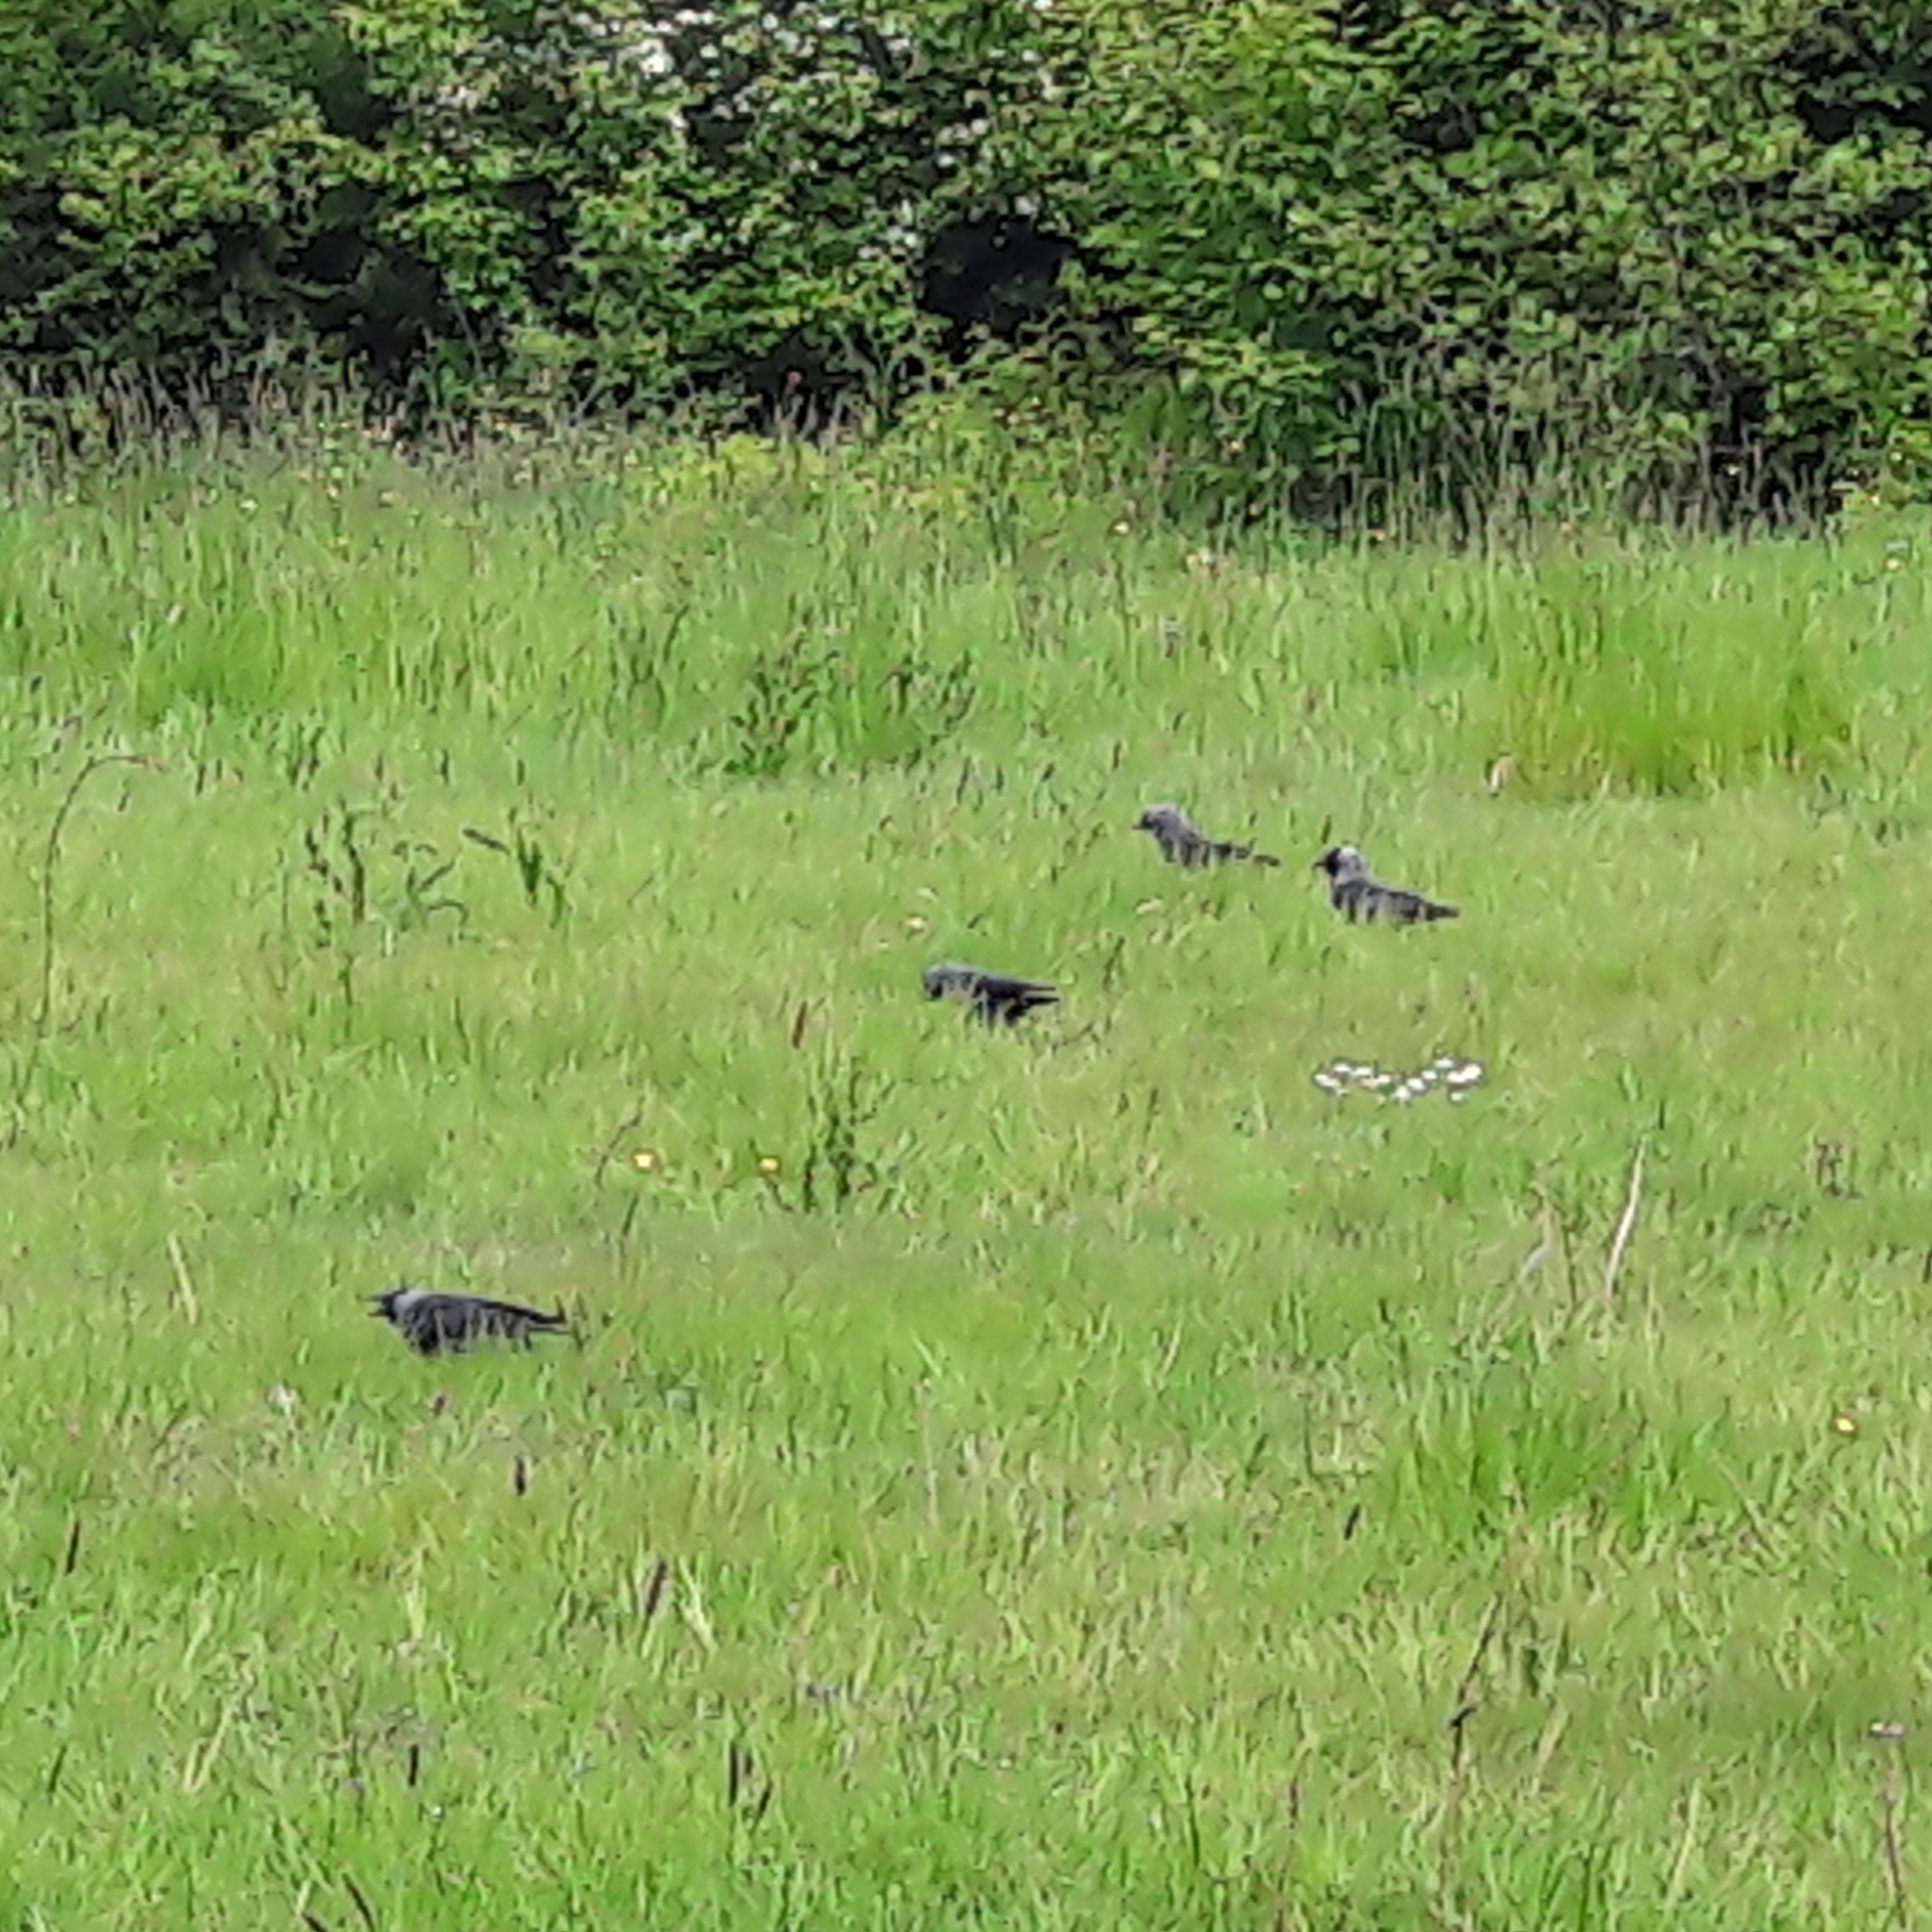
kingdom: Animalia
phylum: Chordata
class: Aves
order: Passeriformes
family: Corvidae
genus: Coloeus
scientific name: Coloeus monedula
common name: Western jackdaw
